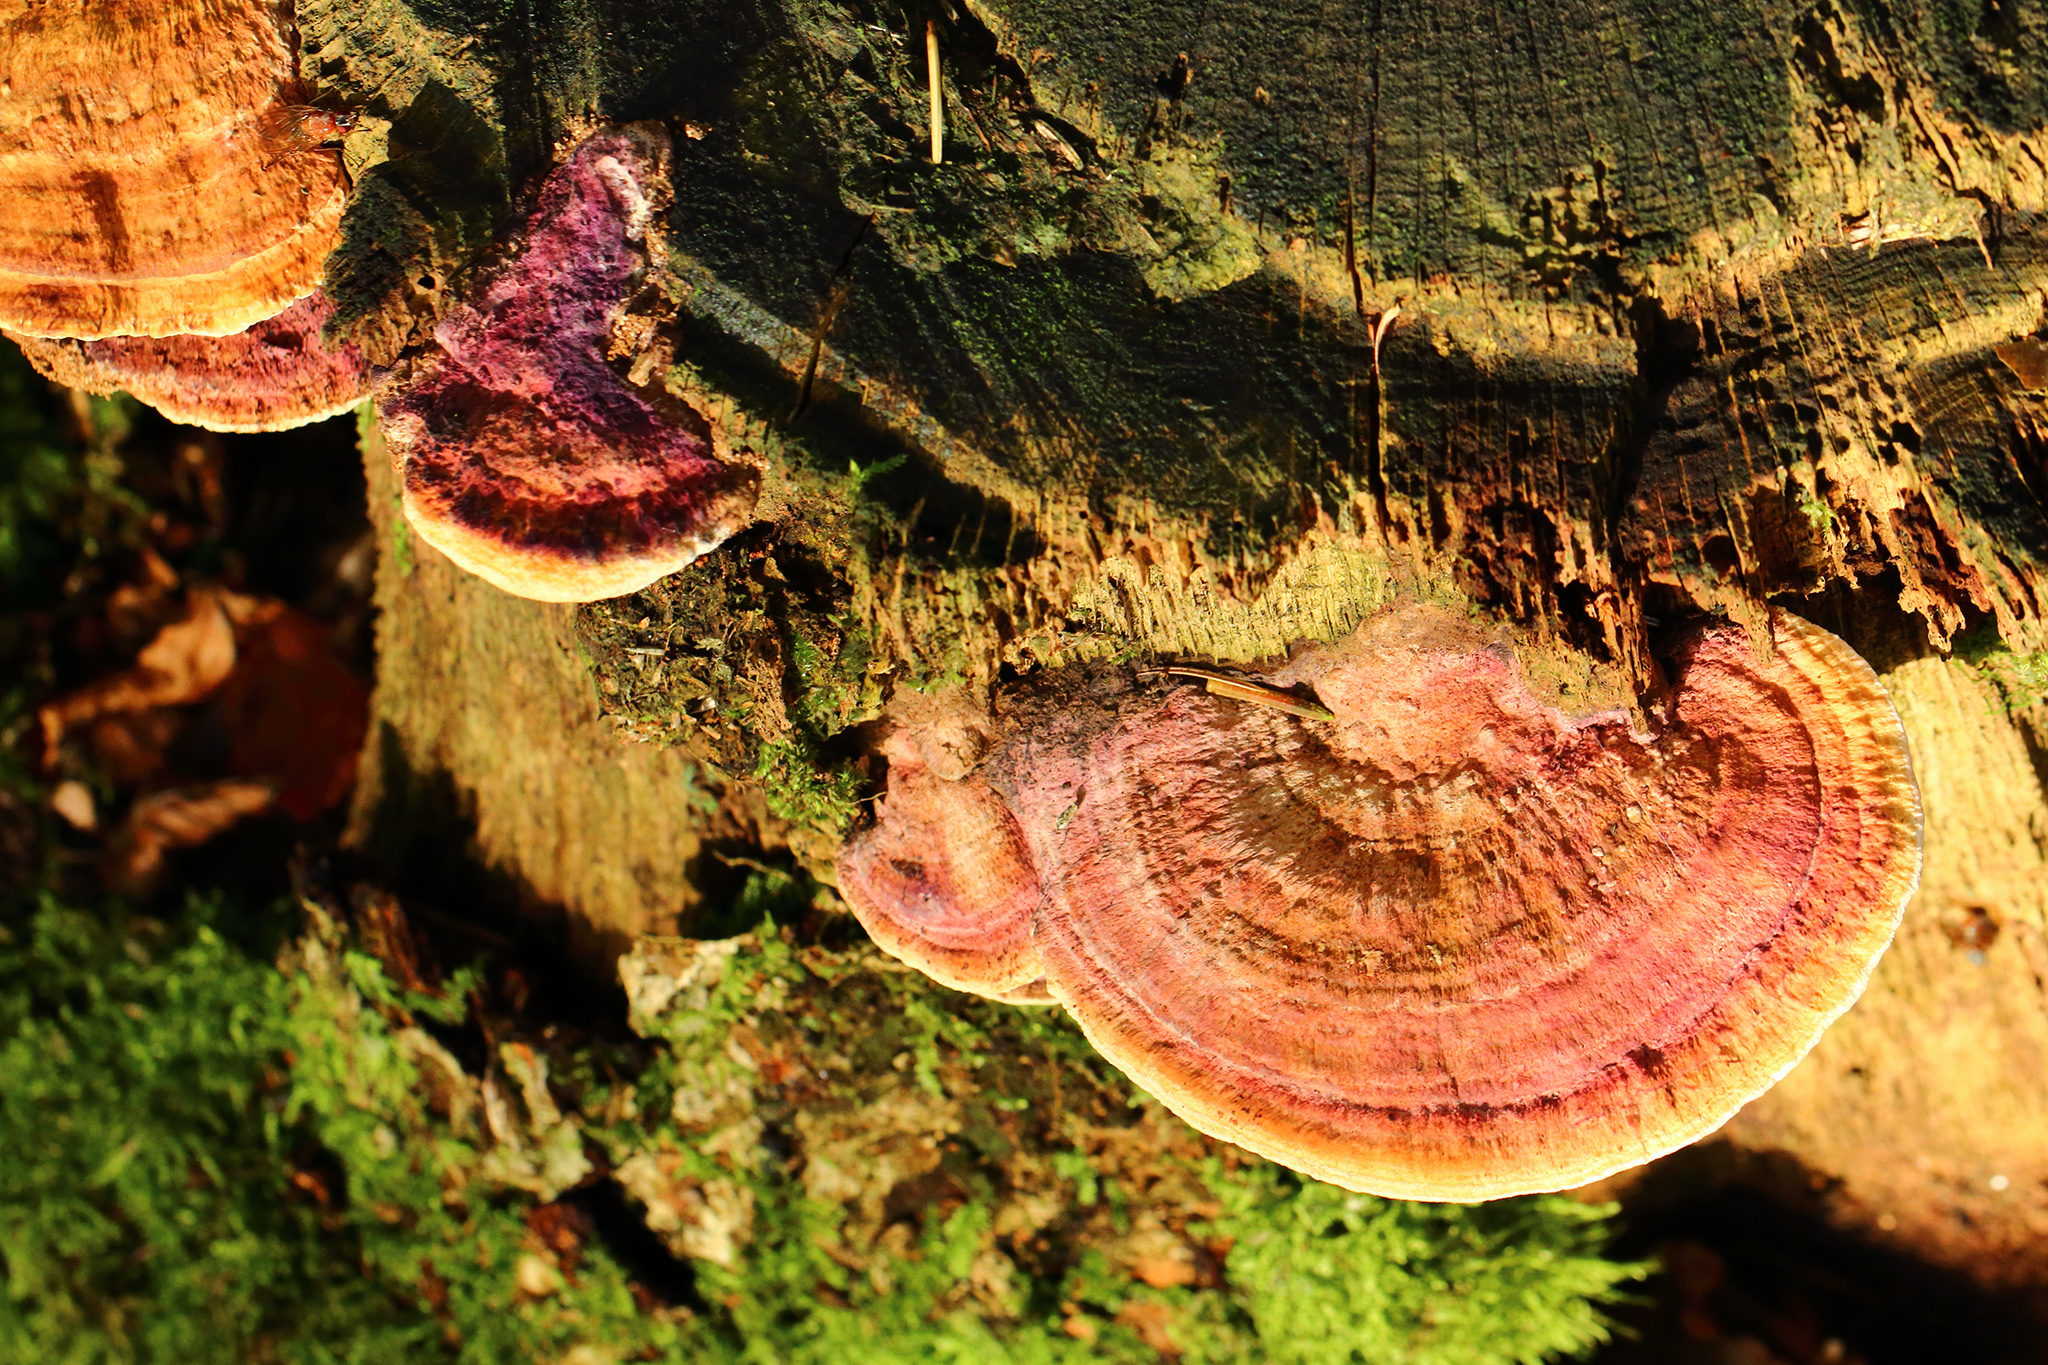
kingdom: Fungi
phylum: Basidiomycota
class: Agaricomycetes
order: Polyporales
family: Fomitopsidaceae
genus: Fomitopsis
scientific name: Fomitopsis
